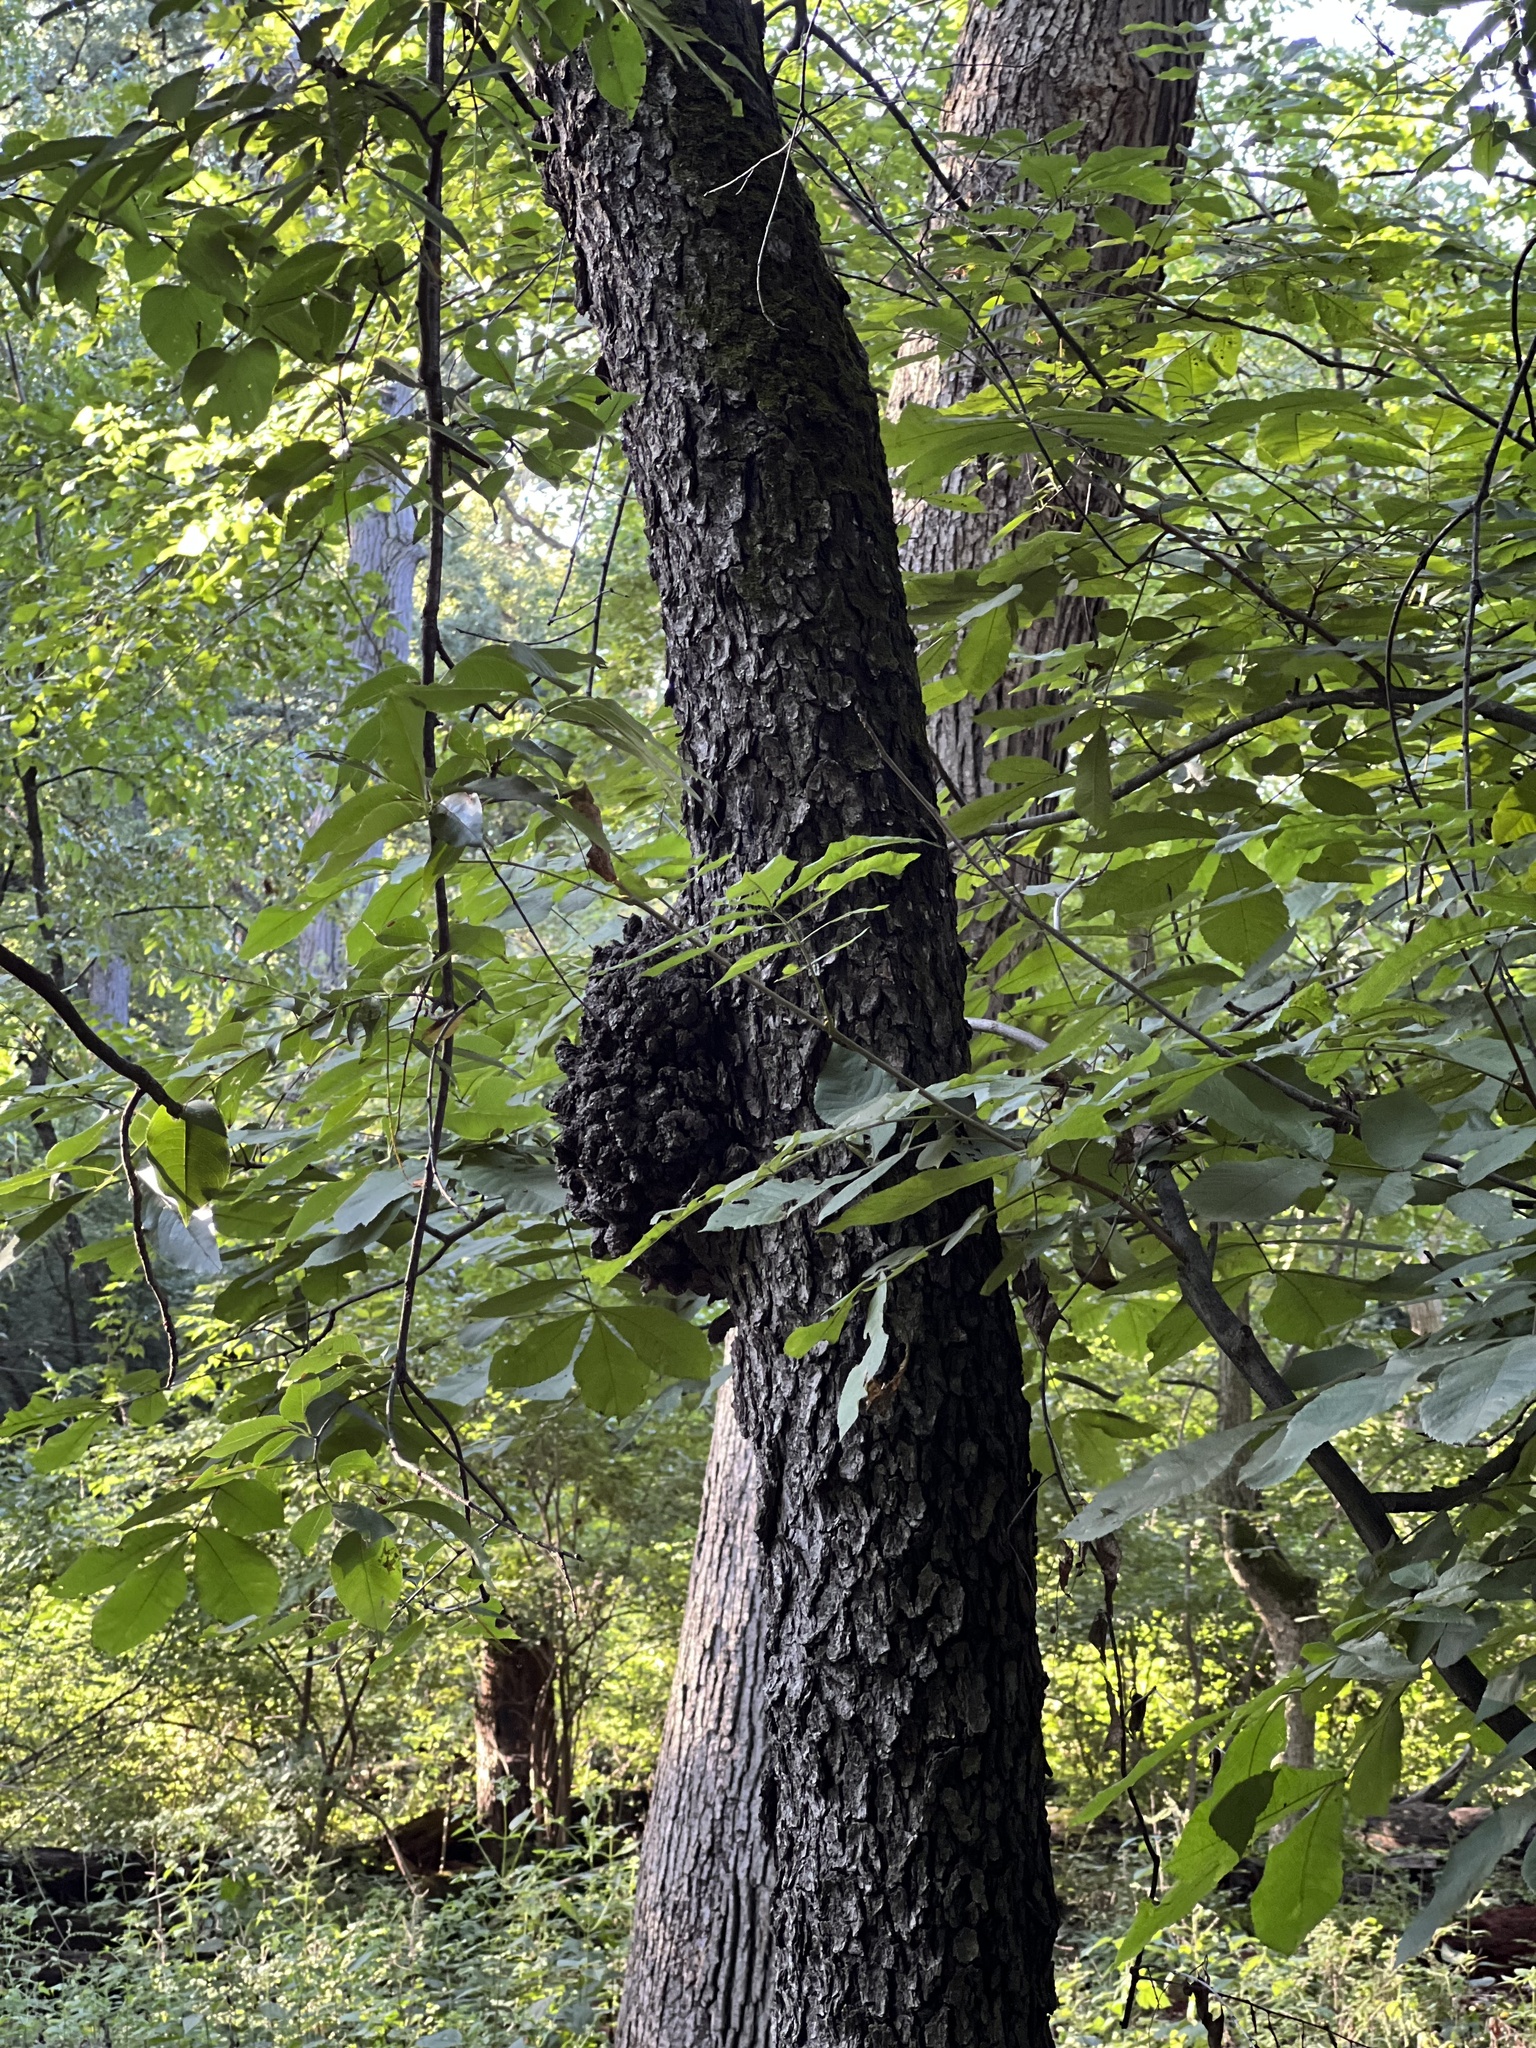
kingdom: Fungi
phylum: Ascomycota
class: Dothideomycetes
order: Venturiales
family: Venturiaceae
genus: Apiosporina
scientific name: Apiosporina morbosa
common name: Black knot
